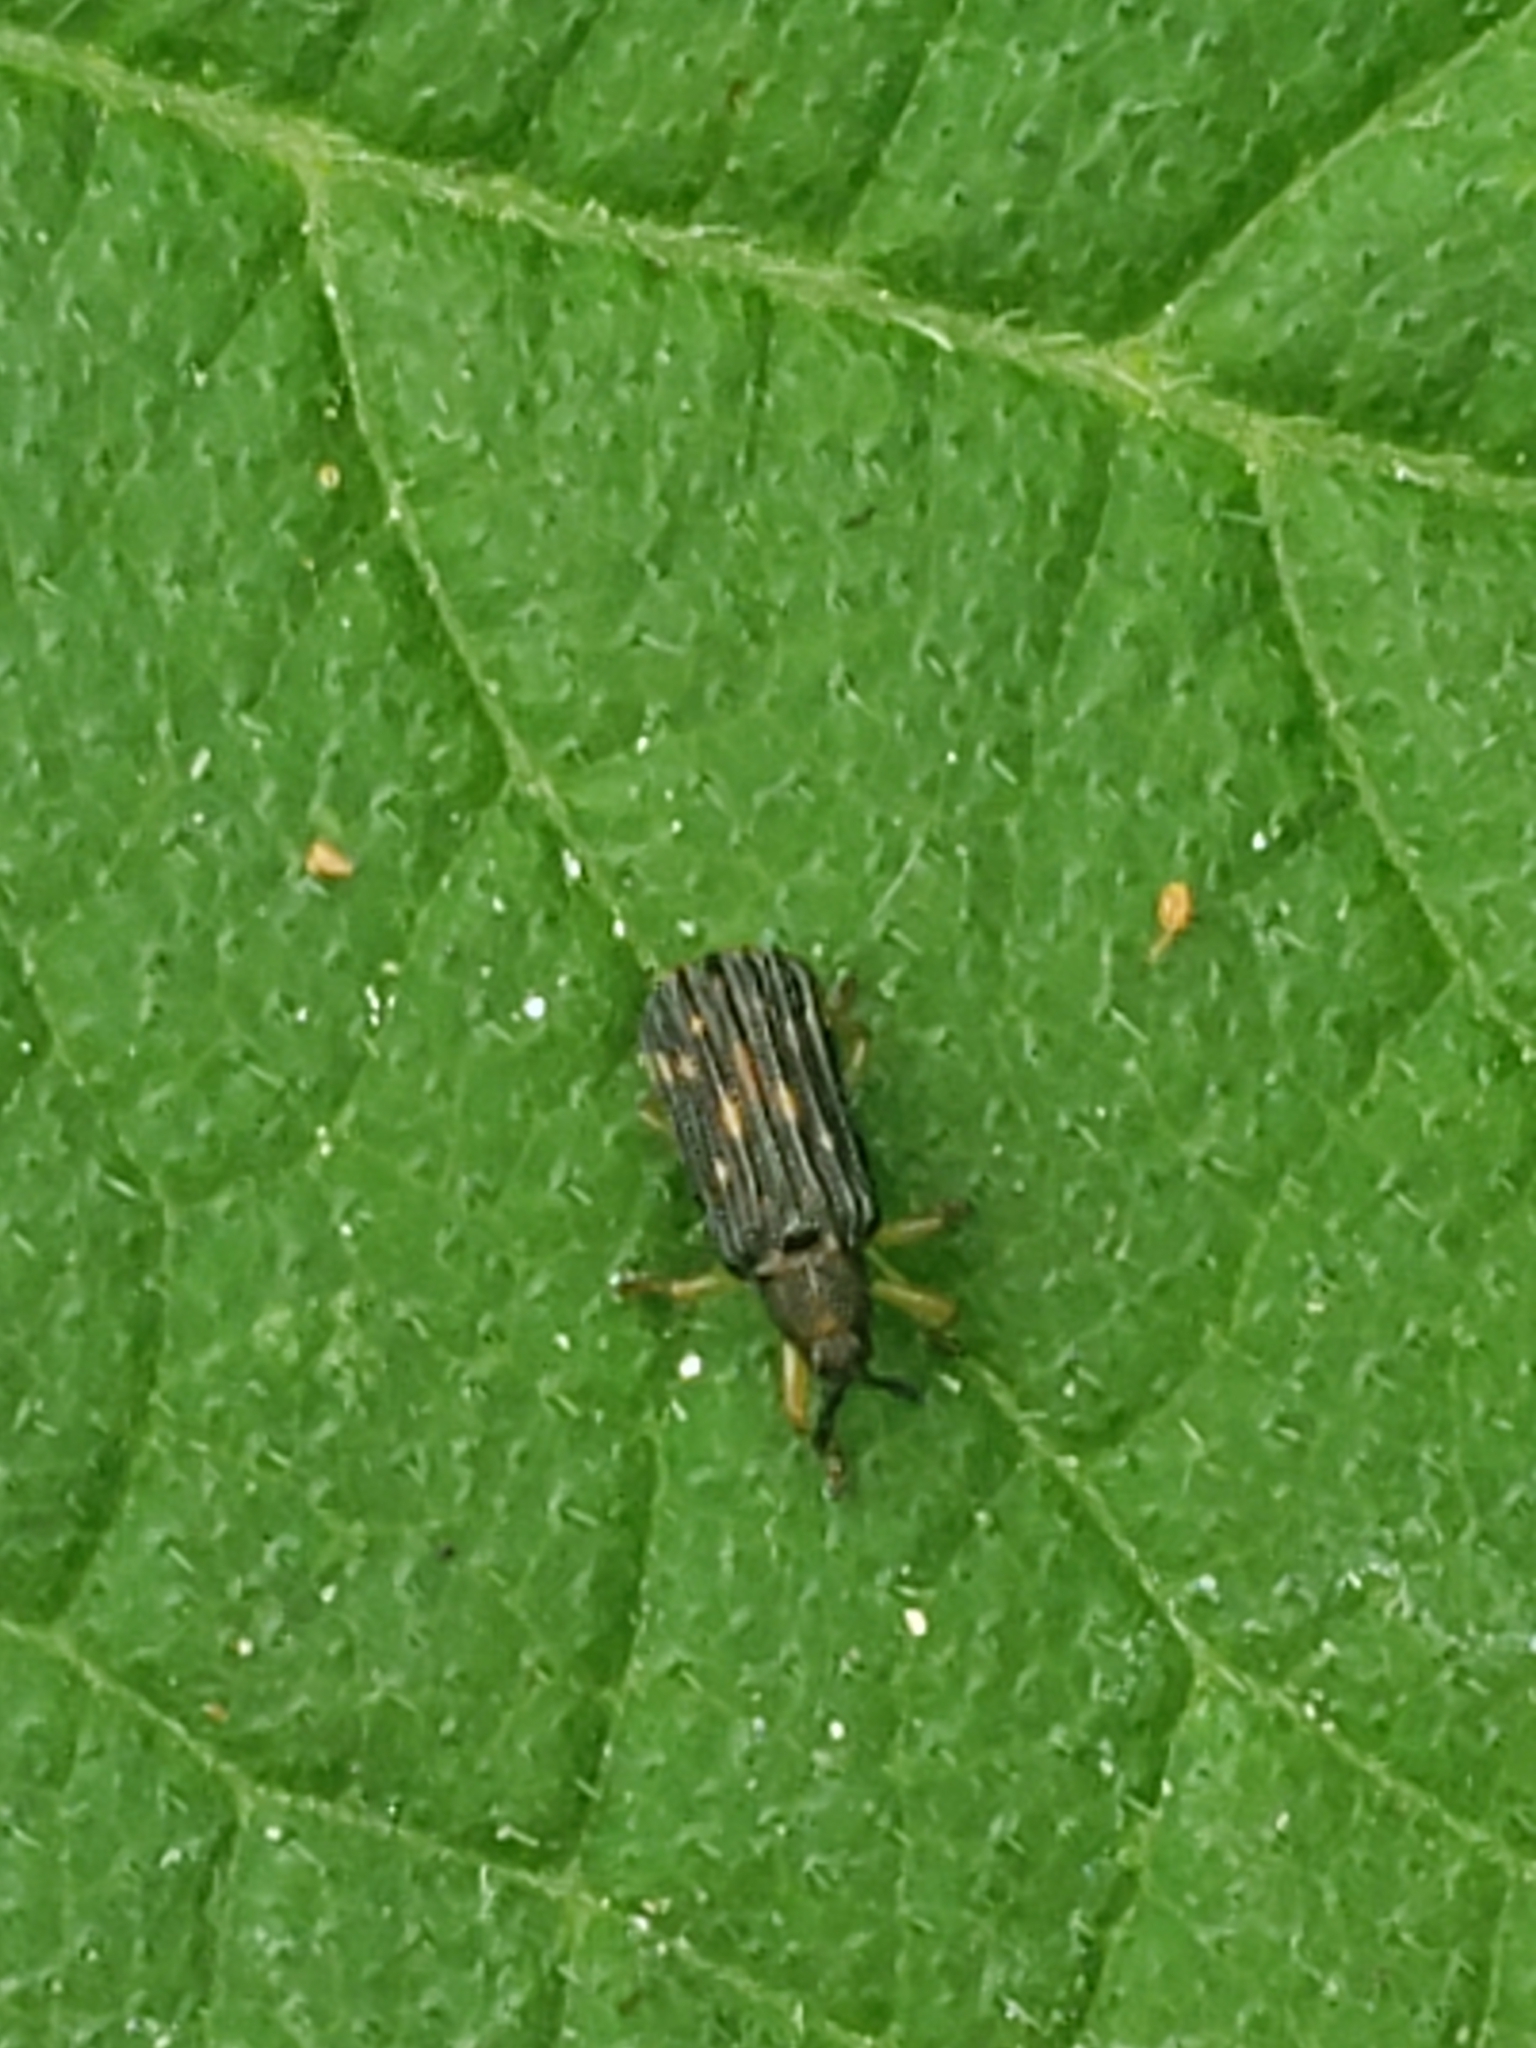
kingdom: Animalia
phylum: Arthropoda
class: Insecta
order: Coleoptera
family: Chrysomelidae
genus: Sumitrosis
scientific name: Sumitrosis inaequalis
